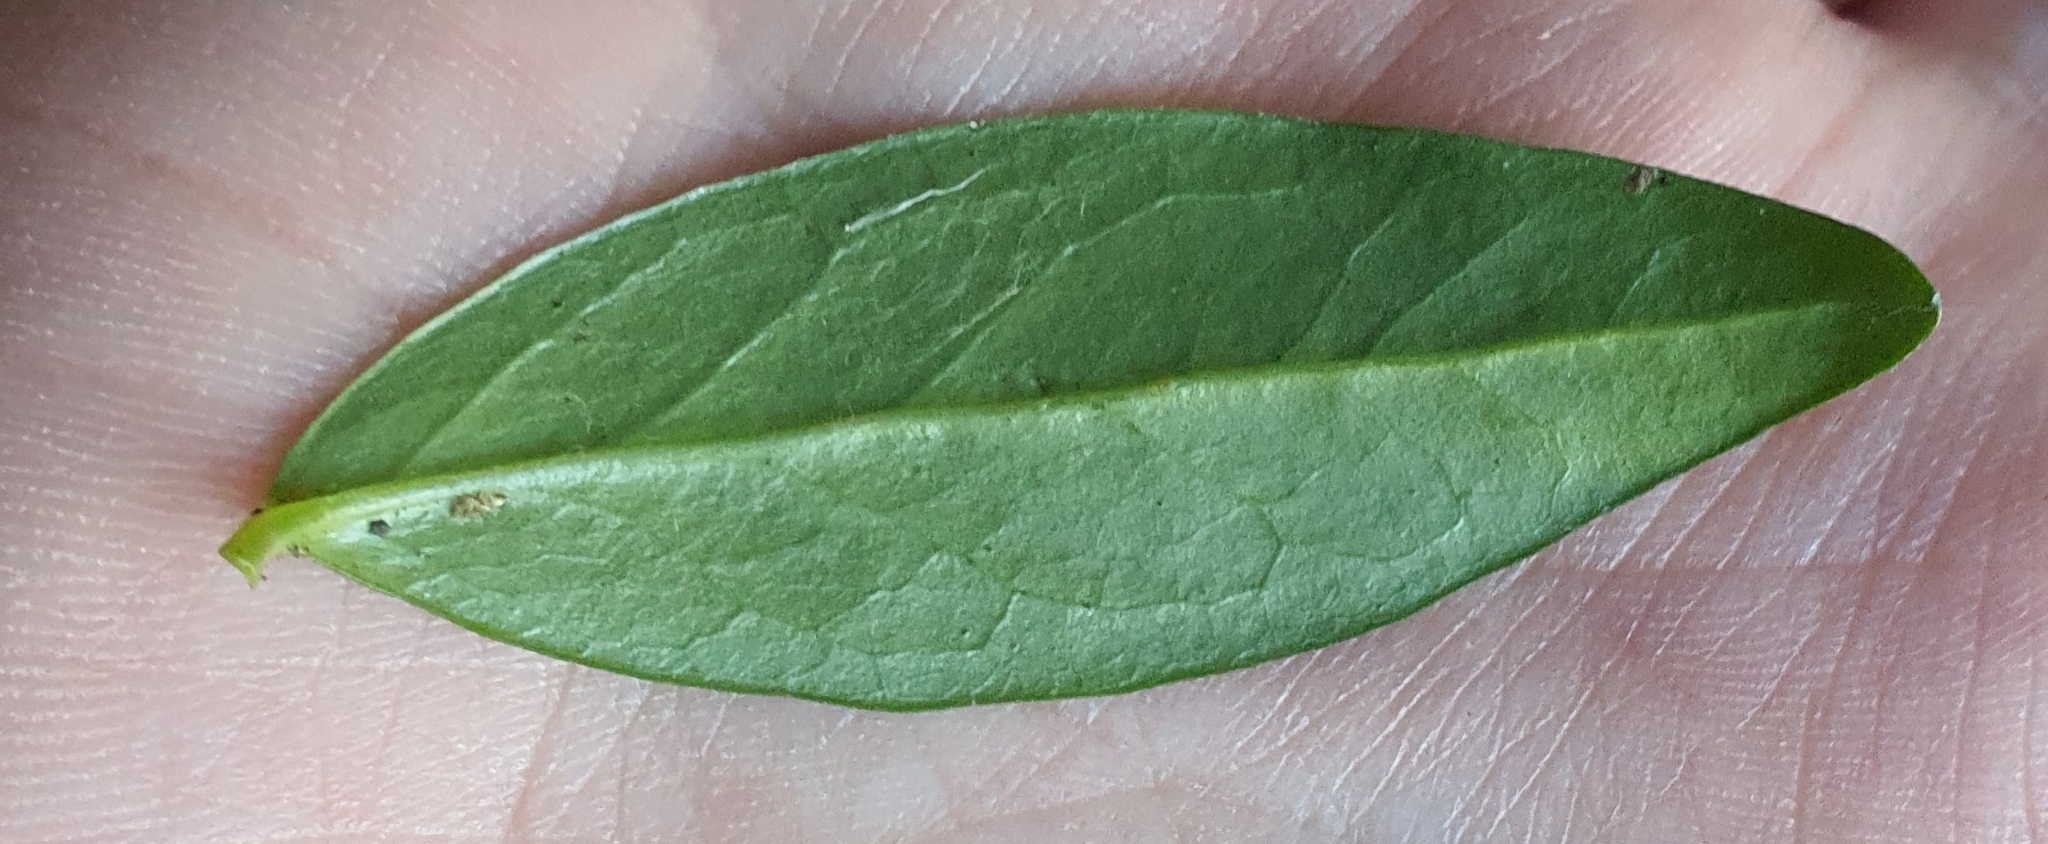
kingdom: Plantae
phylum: Tracheophyta
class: Magnoliopsida
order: Gentianales
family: Apocynaceae
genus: Vinca
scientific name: Vinca minor
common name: Lesser periwinkle
